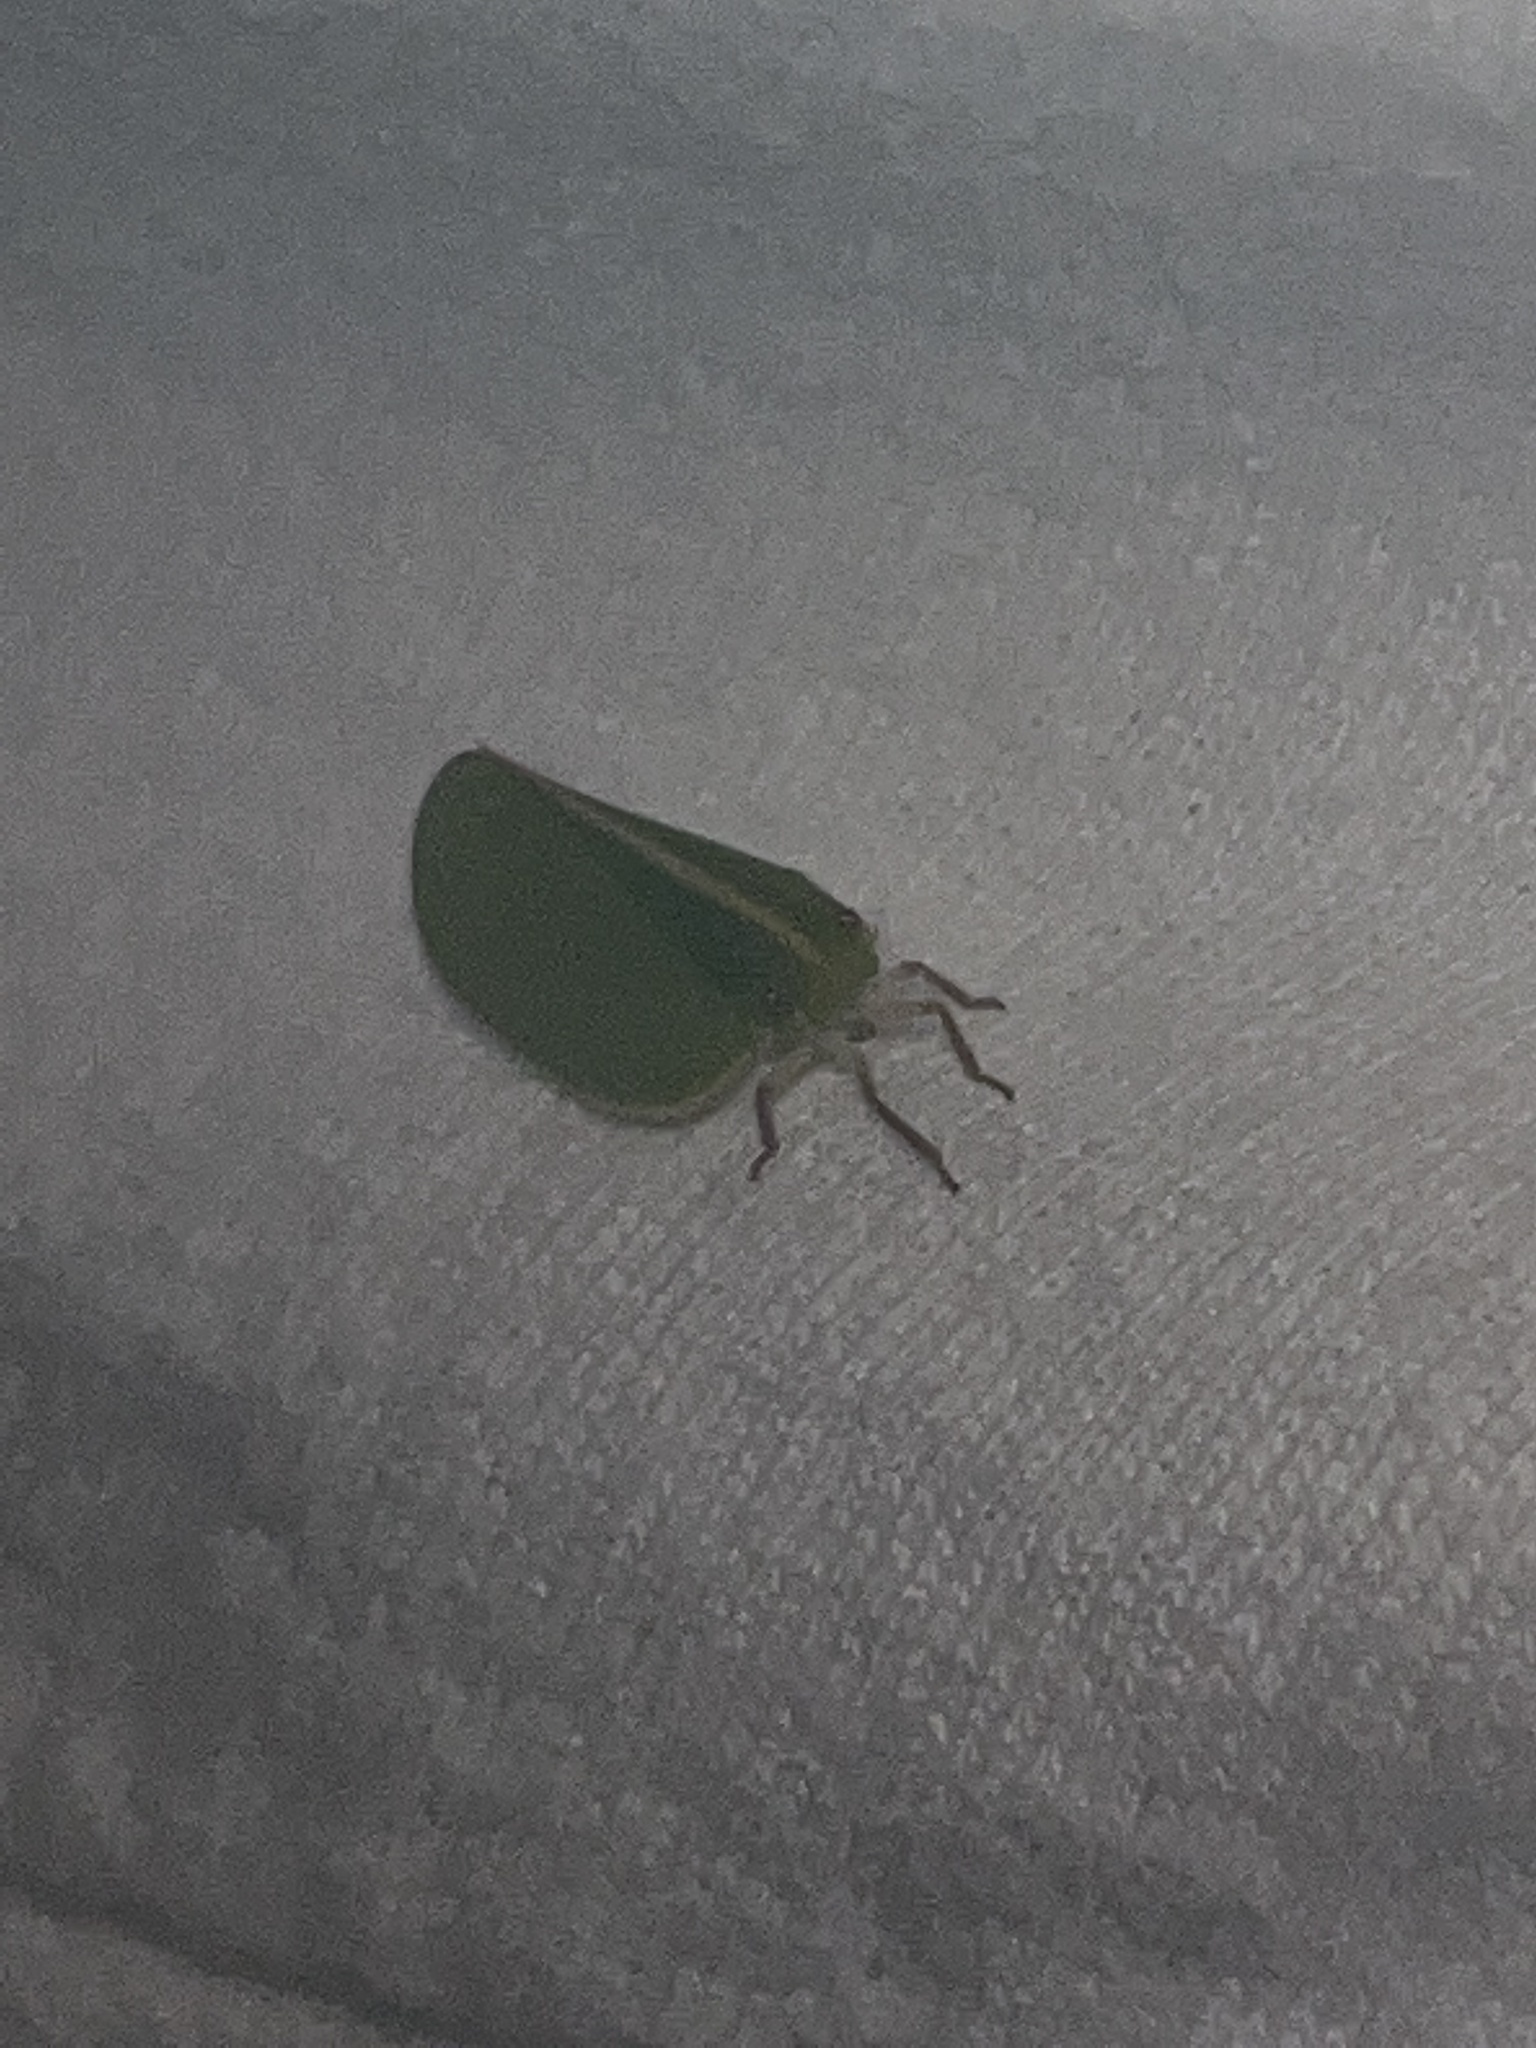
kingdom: Animalia
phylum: Arthropoda
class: Insecta
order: Hemiptera
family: Acanaloniidae
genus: Acanalonia
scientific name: Acanalonia servillei
